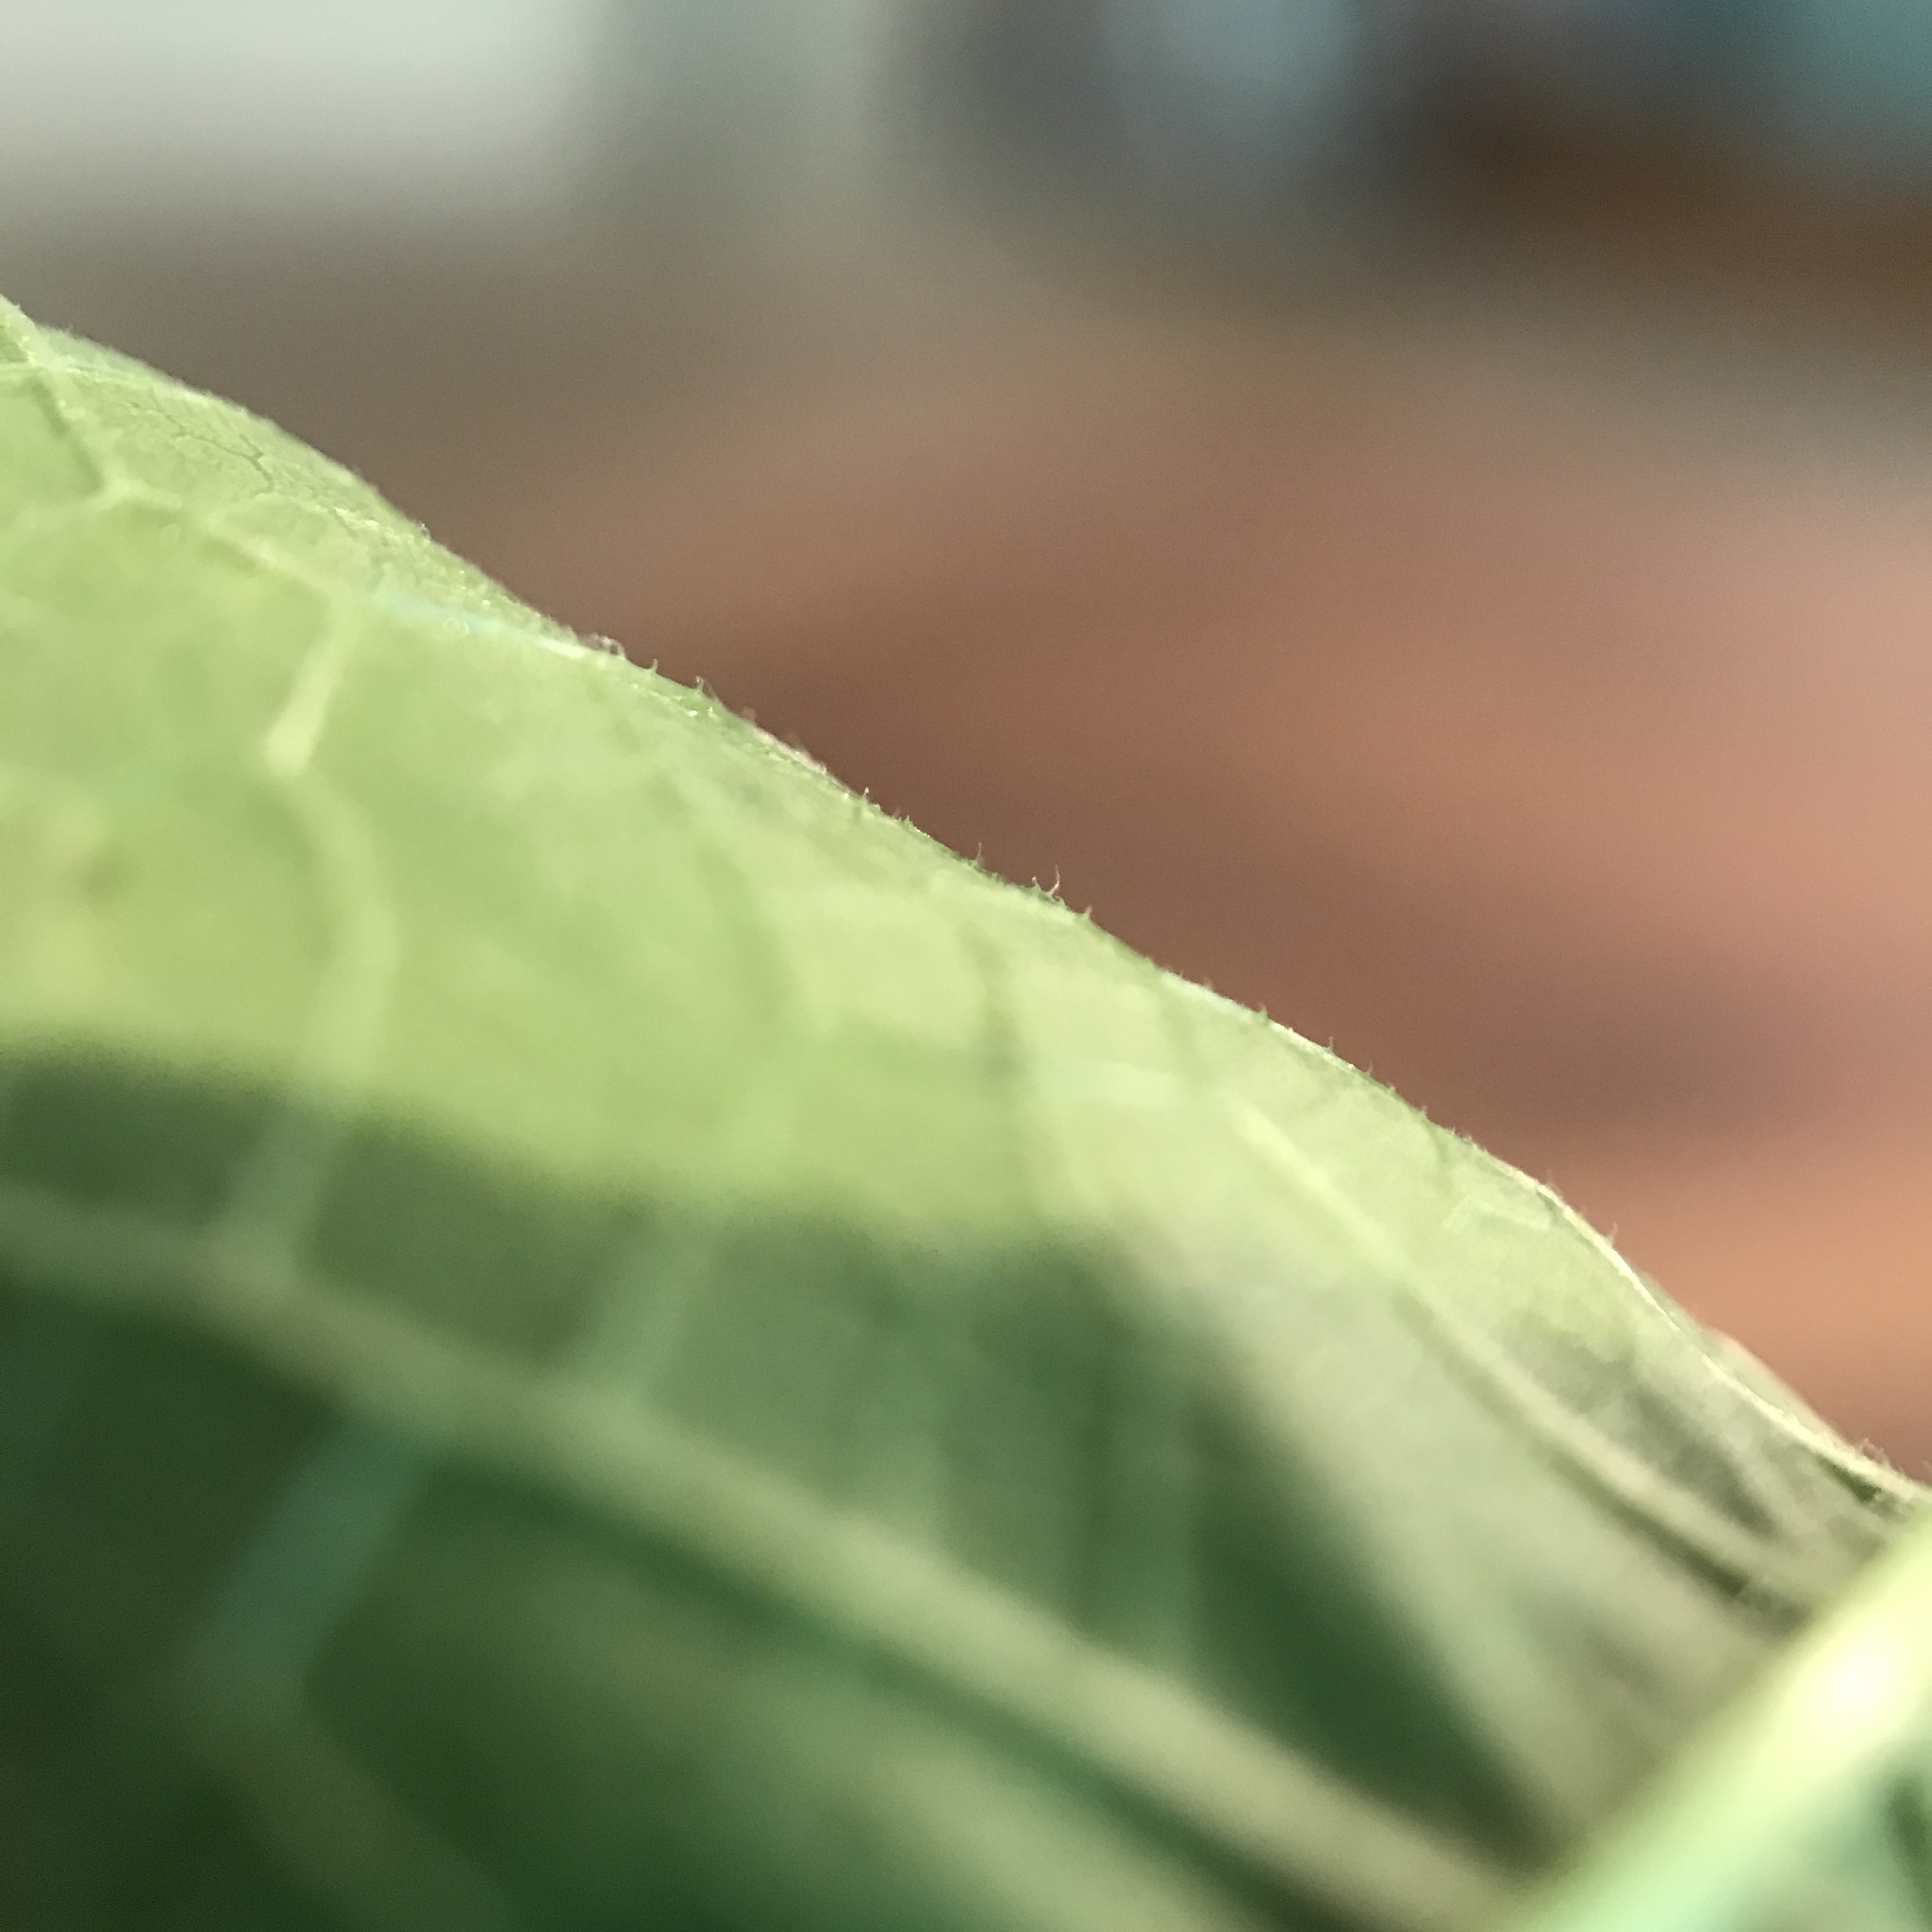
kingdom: Plantae
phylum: Tracheophyta
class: Magnoliopsida
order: Rosales
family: Moraceae
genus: Morus
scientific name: Morus rubra
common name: Red mulberry
